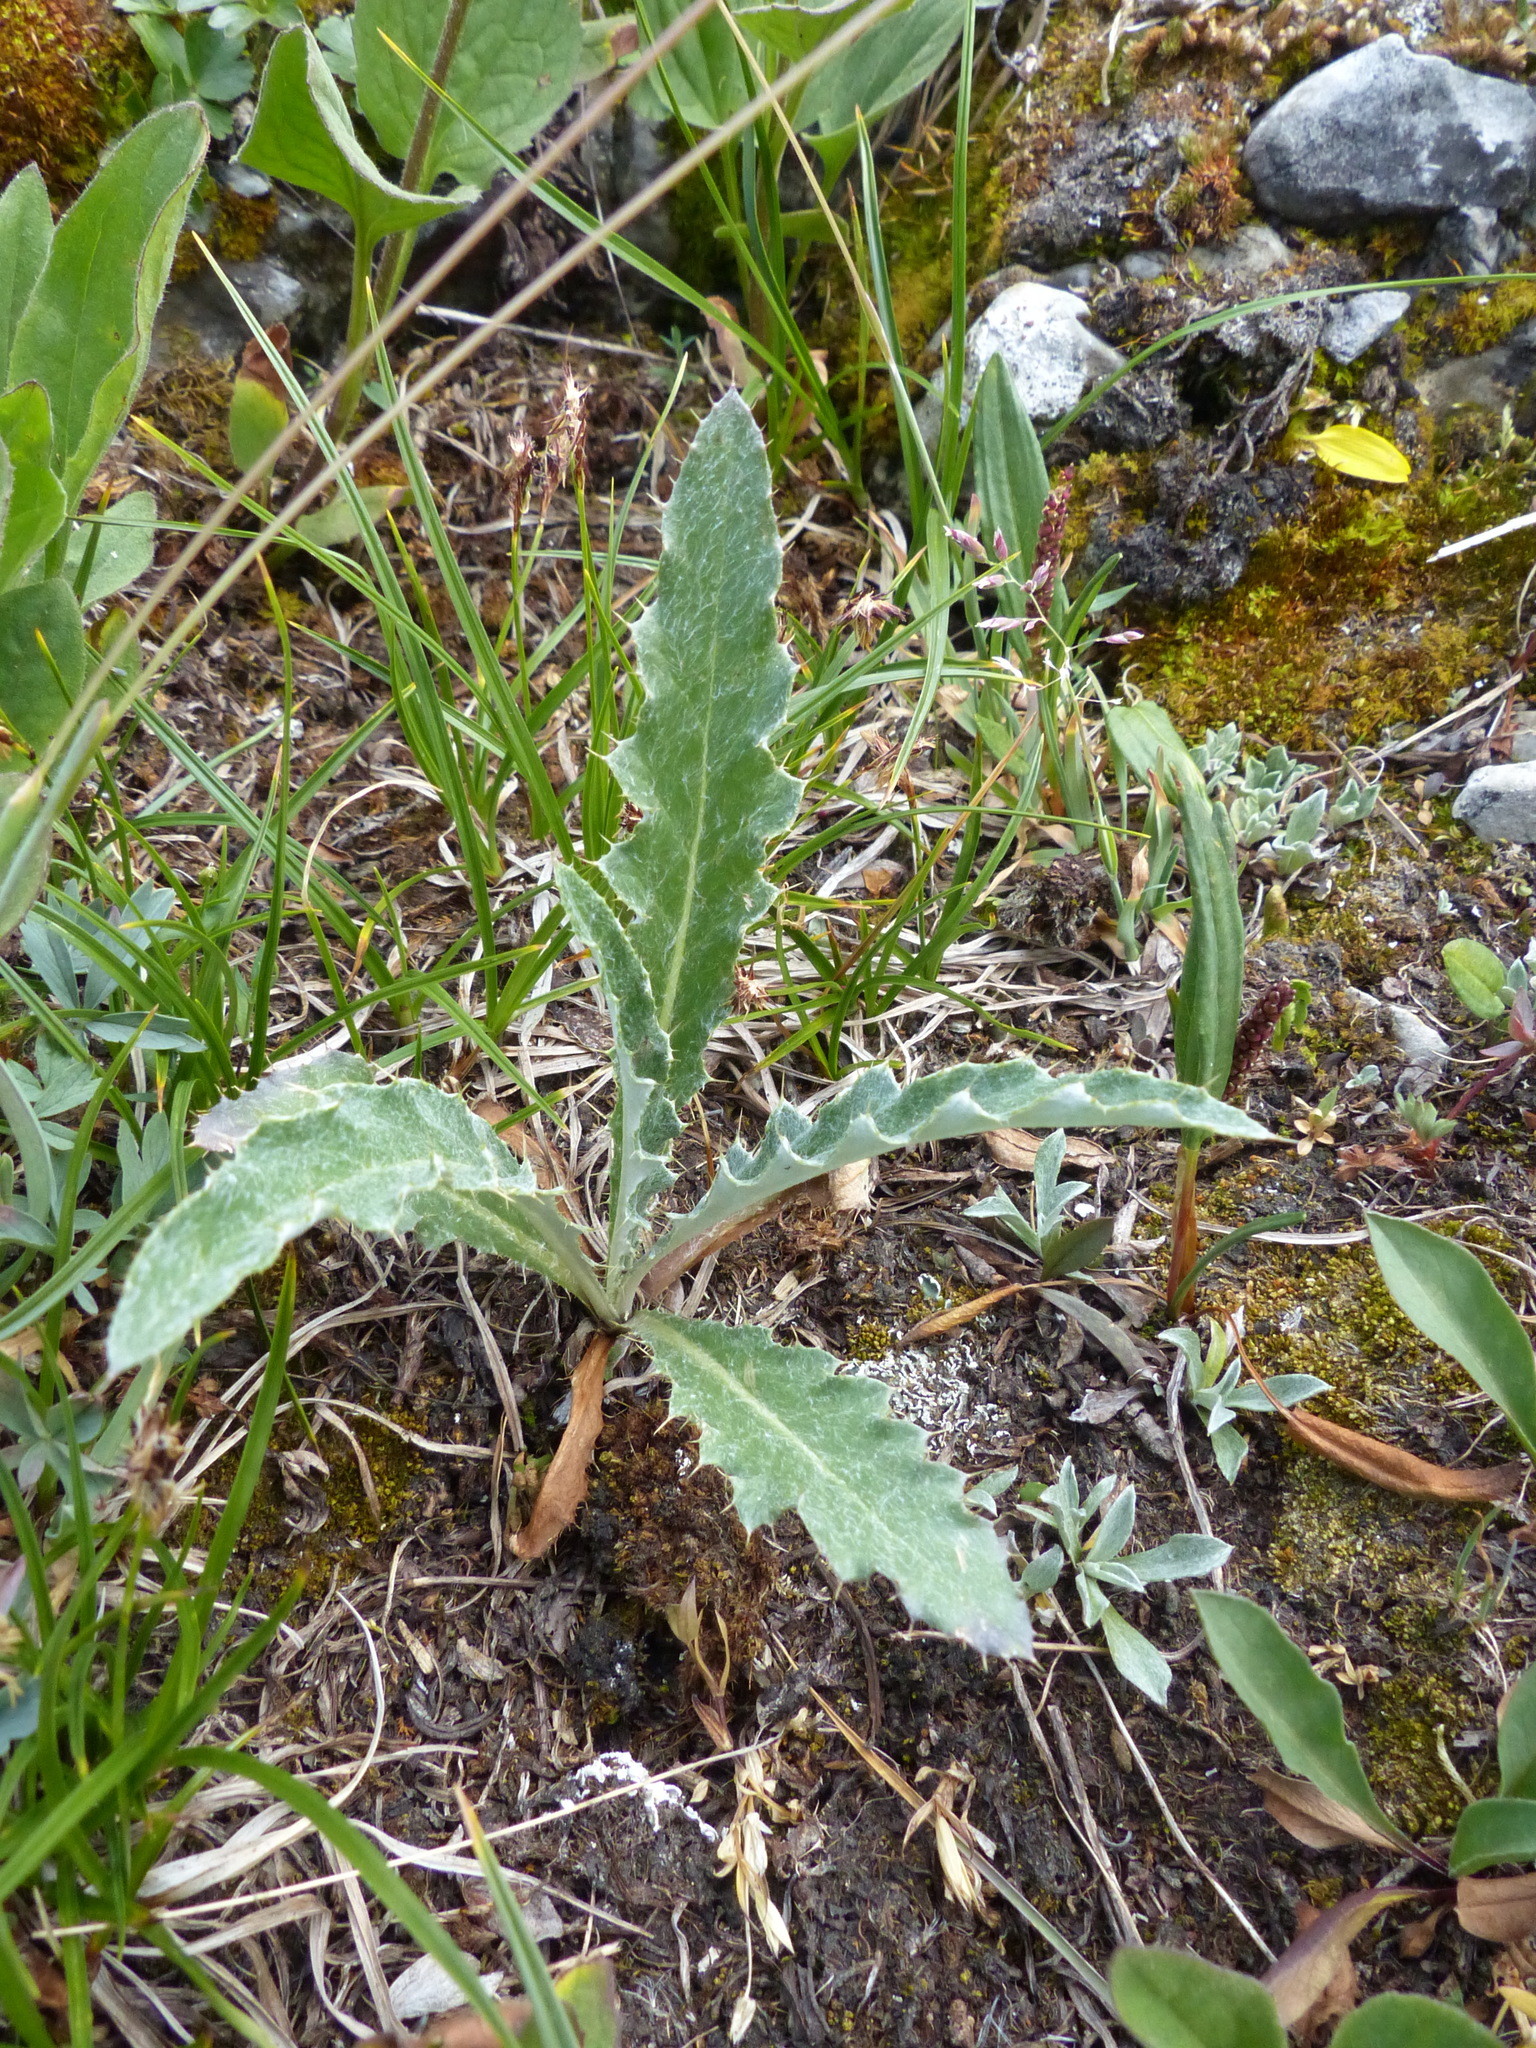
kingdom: Plantae
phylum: Tracheophyta
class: Magnoliopsida
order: Asterales
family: Asteraceae
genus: Cirsium
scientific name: Cirsium hookerianum
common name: Hooker's thistle
